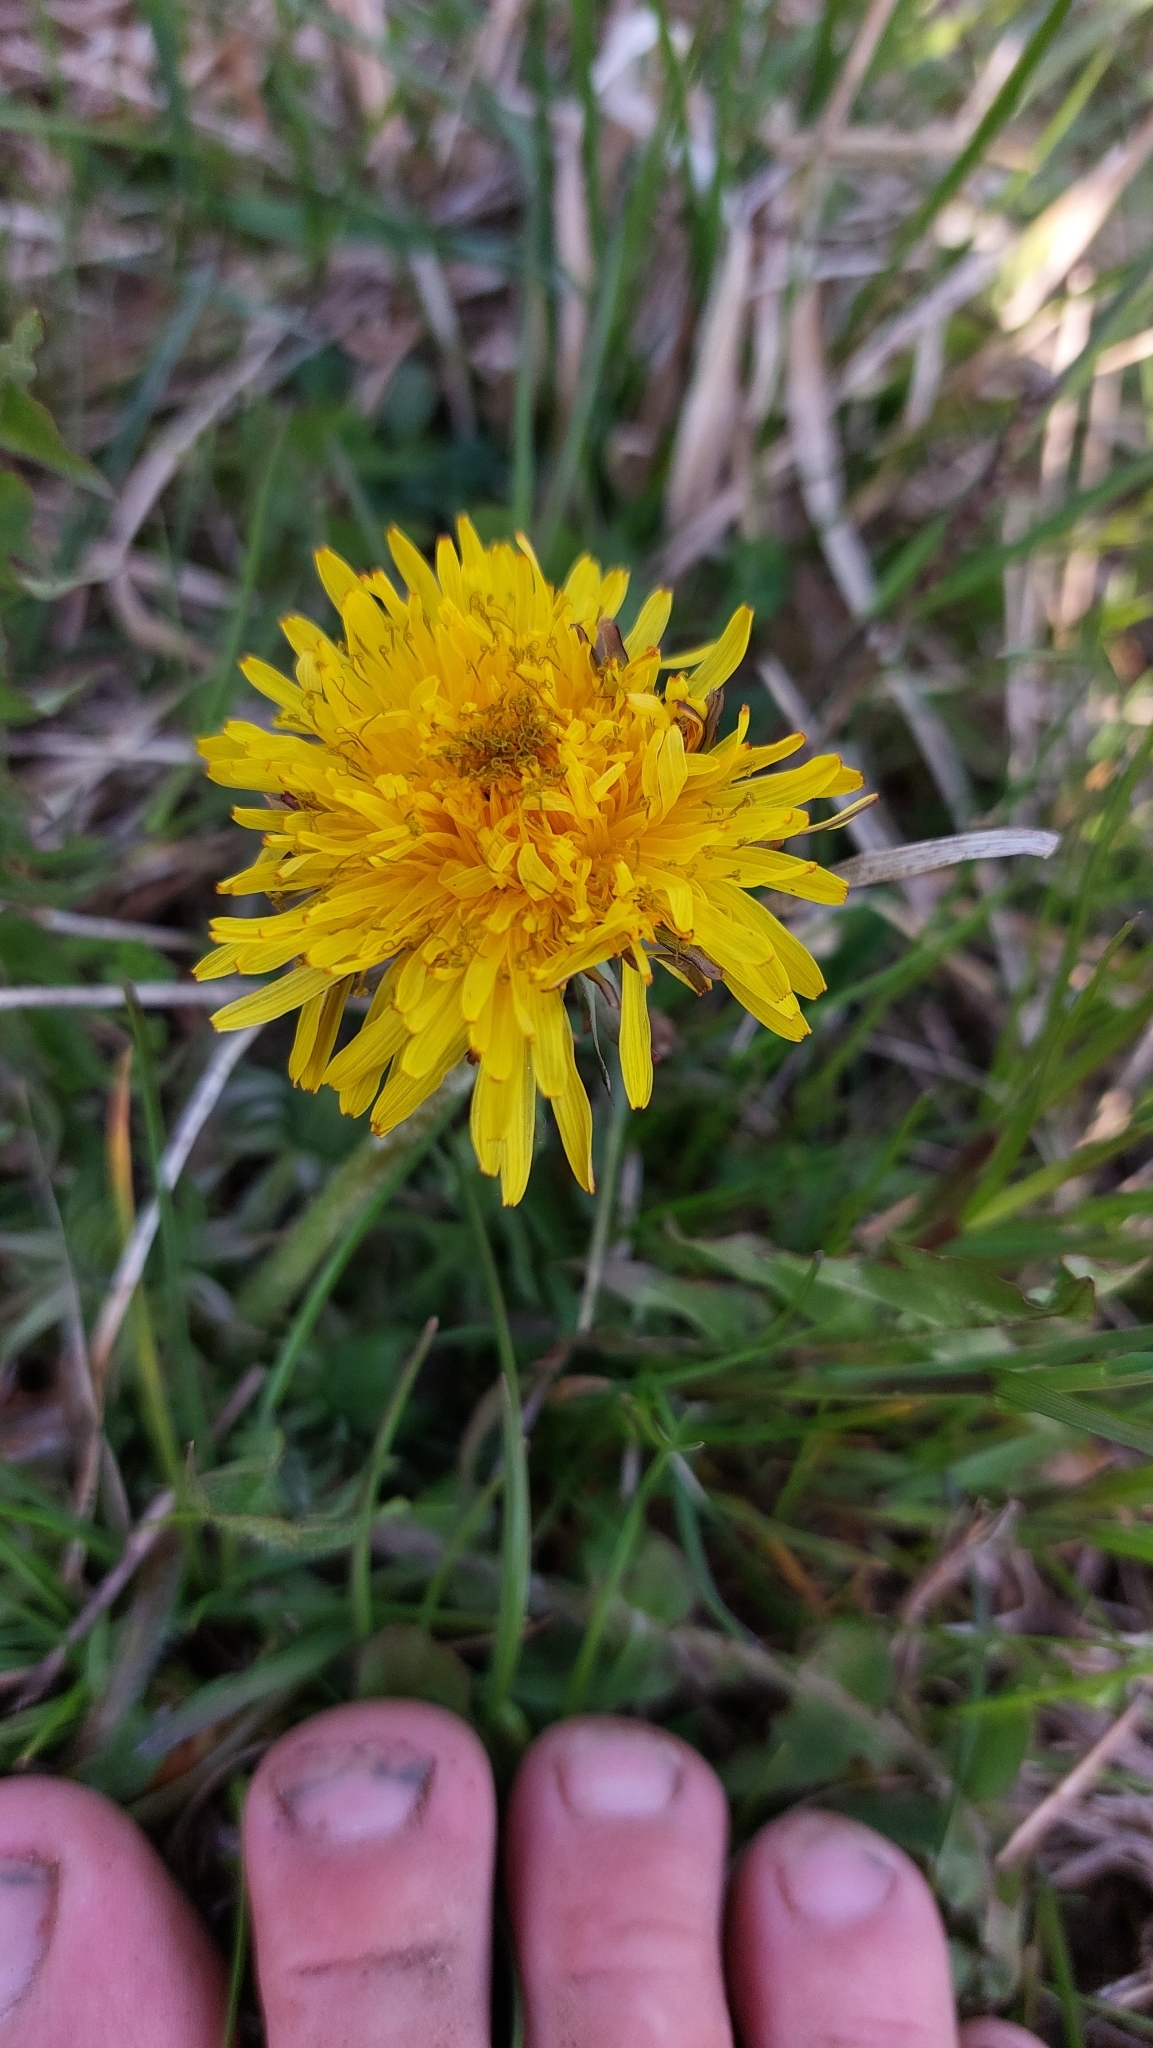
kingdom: Plantae
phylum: Tracheophyta
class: Magnoliopsida
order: Asterales
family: Asteraceae
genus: Taraxacum
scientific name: Taraxacum
